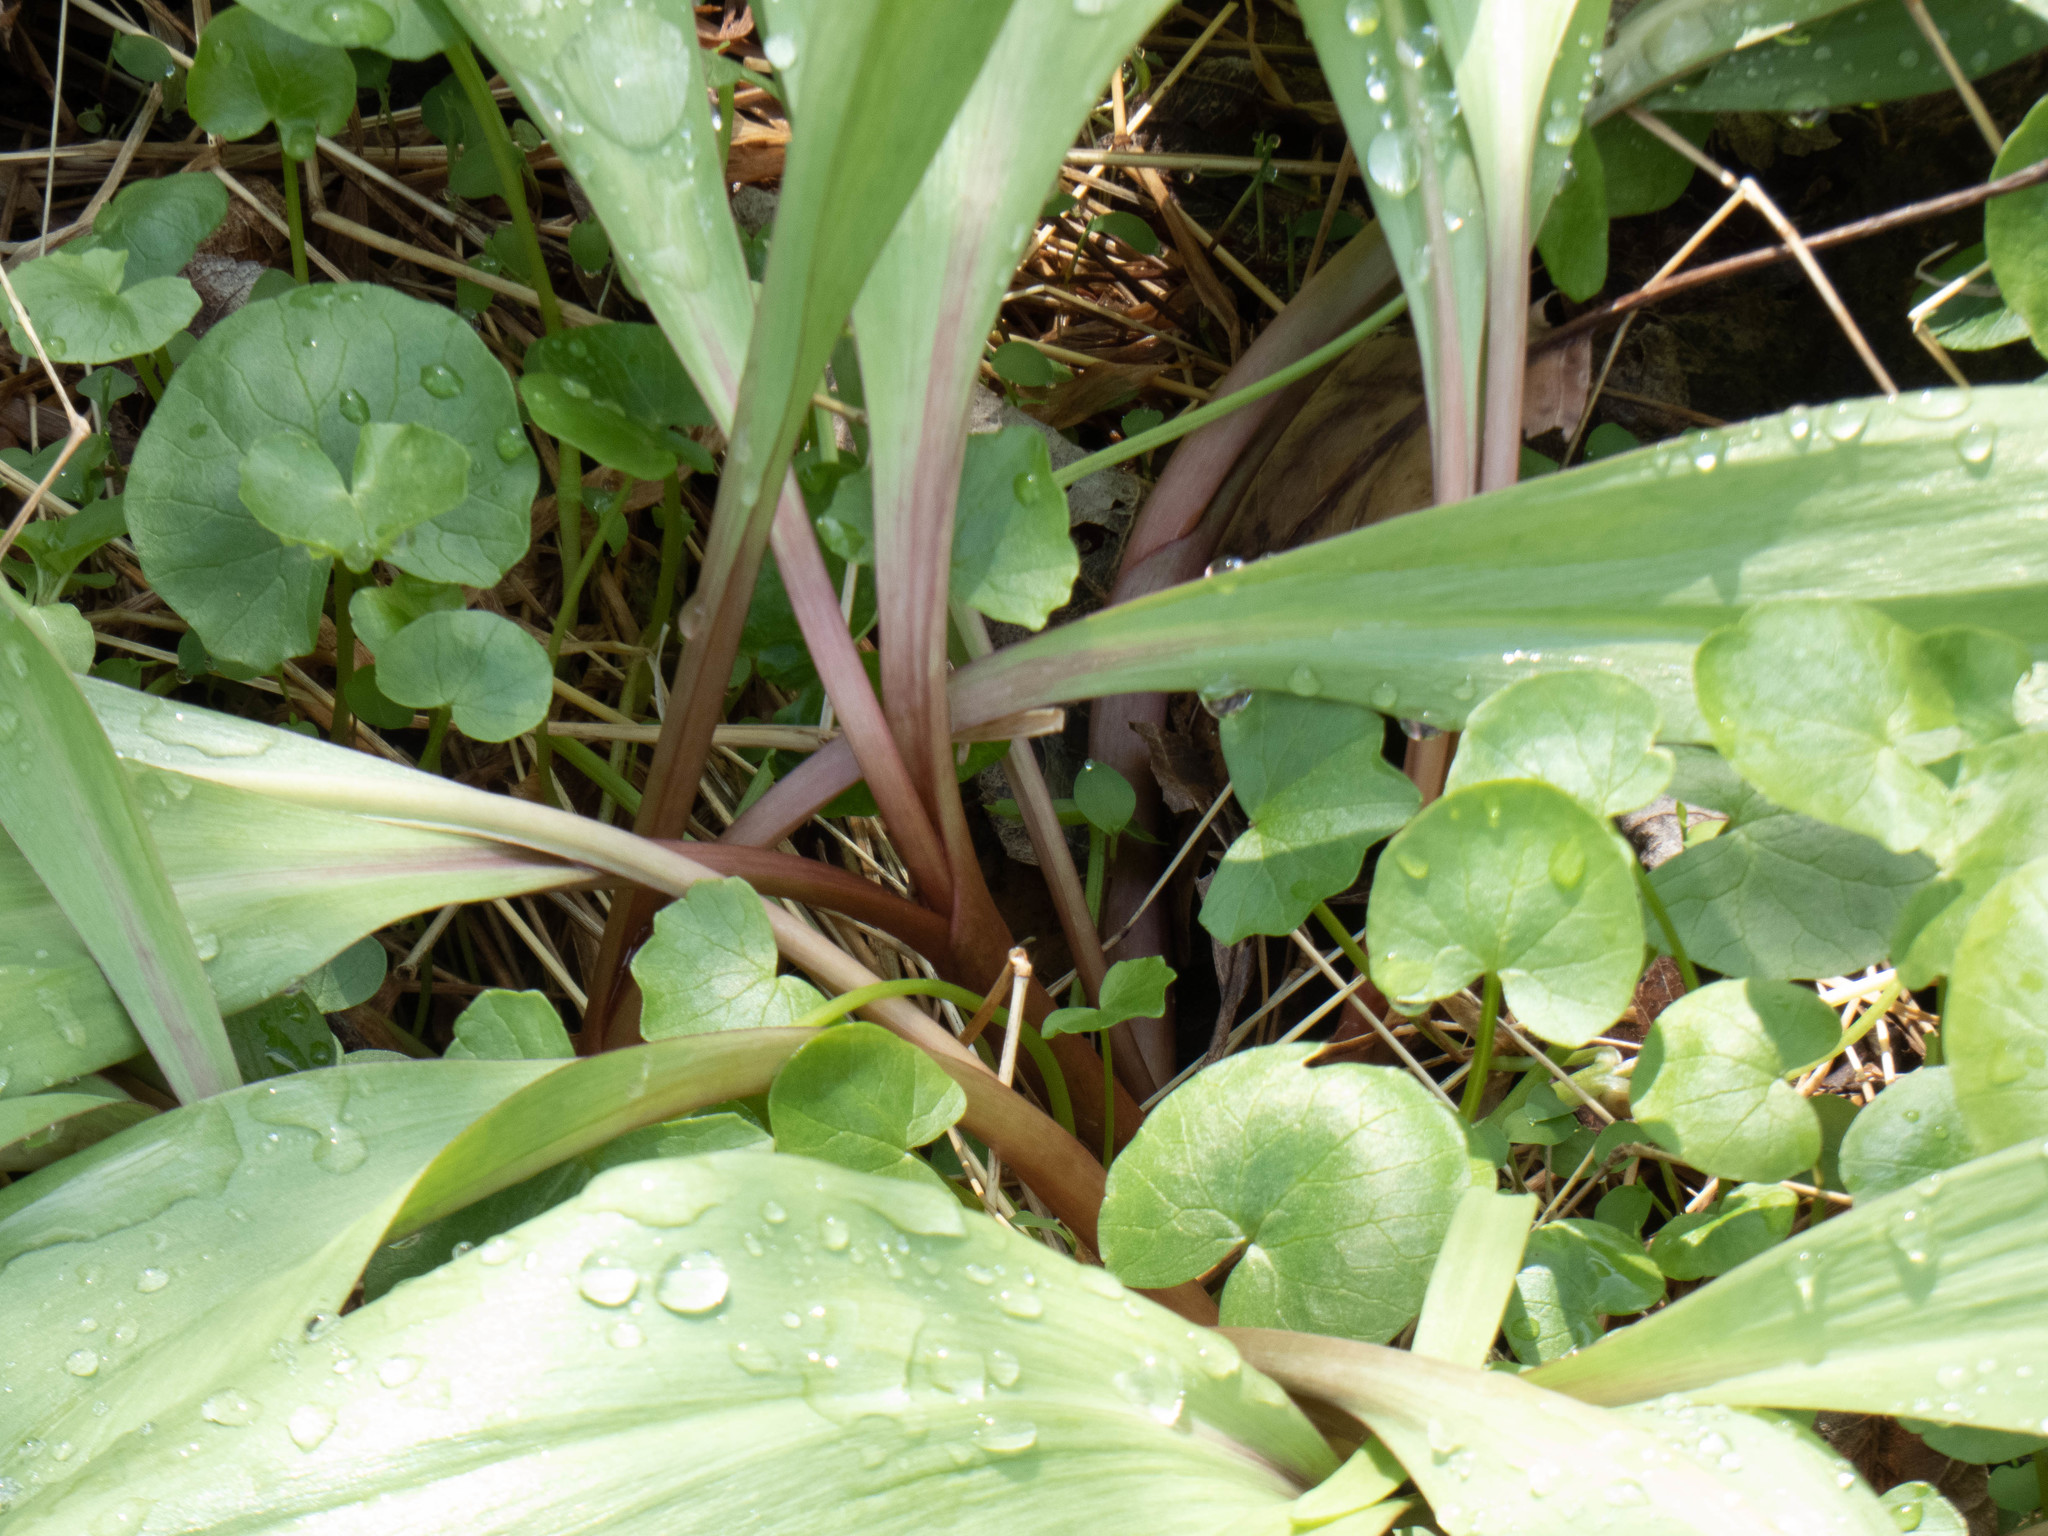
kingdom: Plantae
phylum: Tracheophyta
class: Liliopsida
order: Asparagales
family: Amaryllidaceae
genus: Allium
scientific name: Allium tricoccum
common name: Ramp
